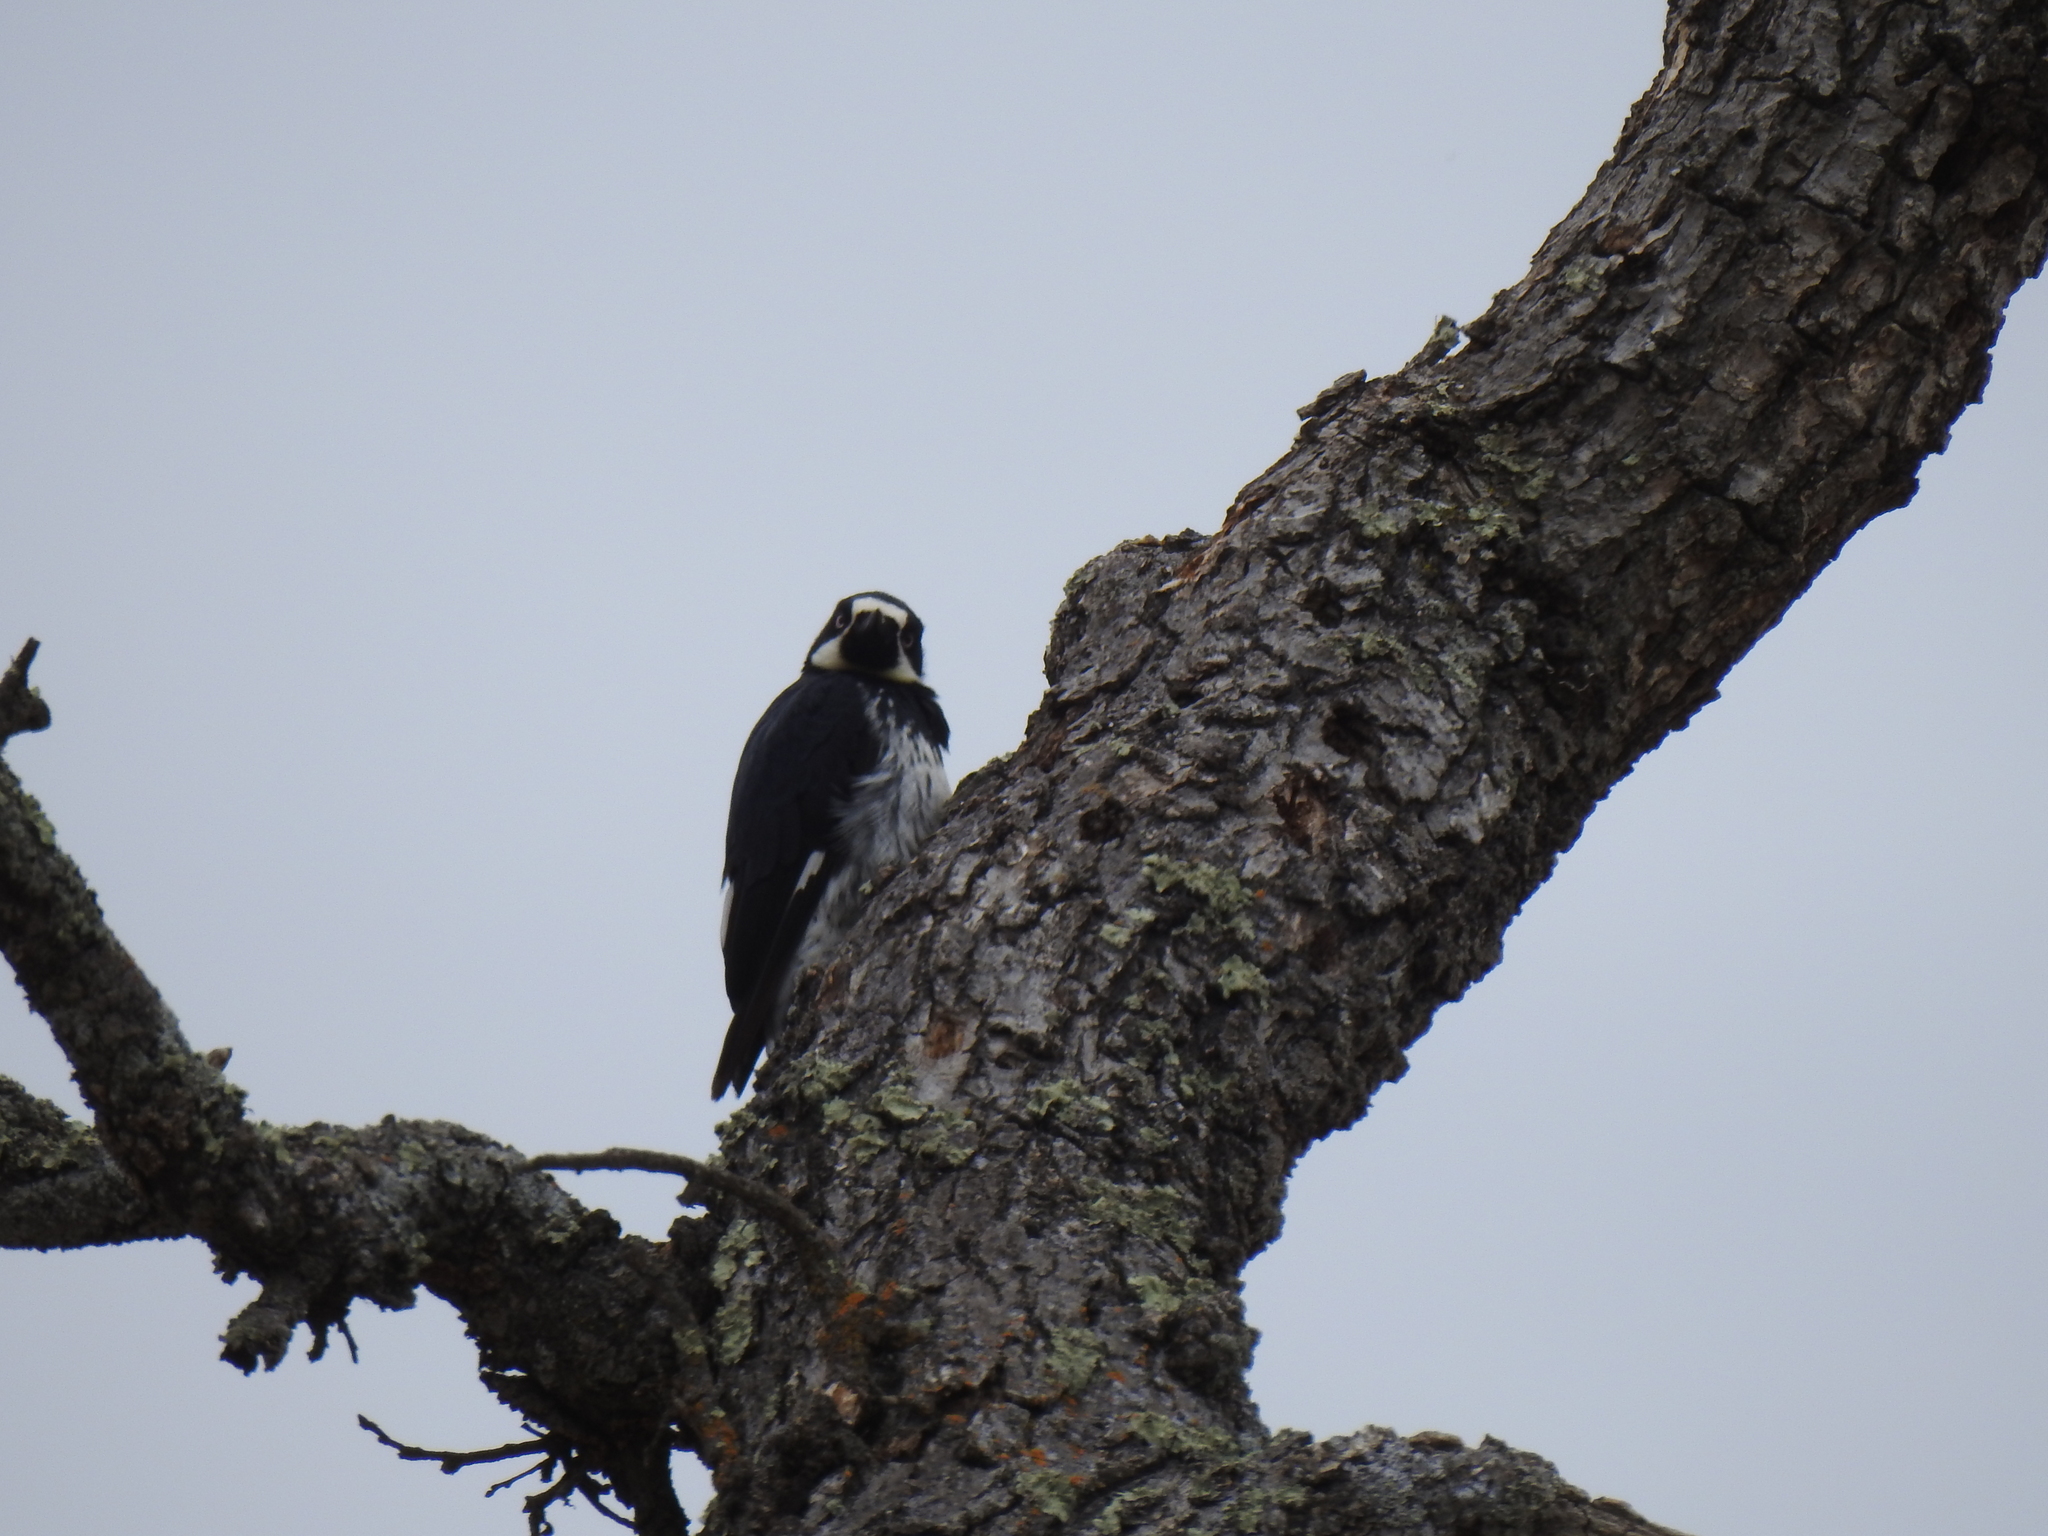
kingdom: Animalia
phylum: Chordata
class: Aves
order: Piciformes
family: Picidae
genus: Melanerpes
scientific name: Melanerpes formicivorus
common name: Acorn woodpecker
